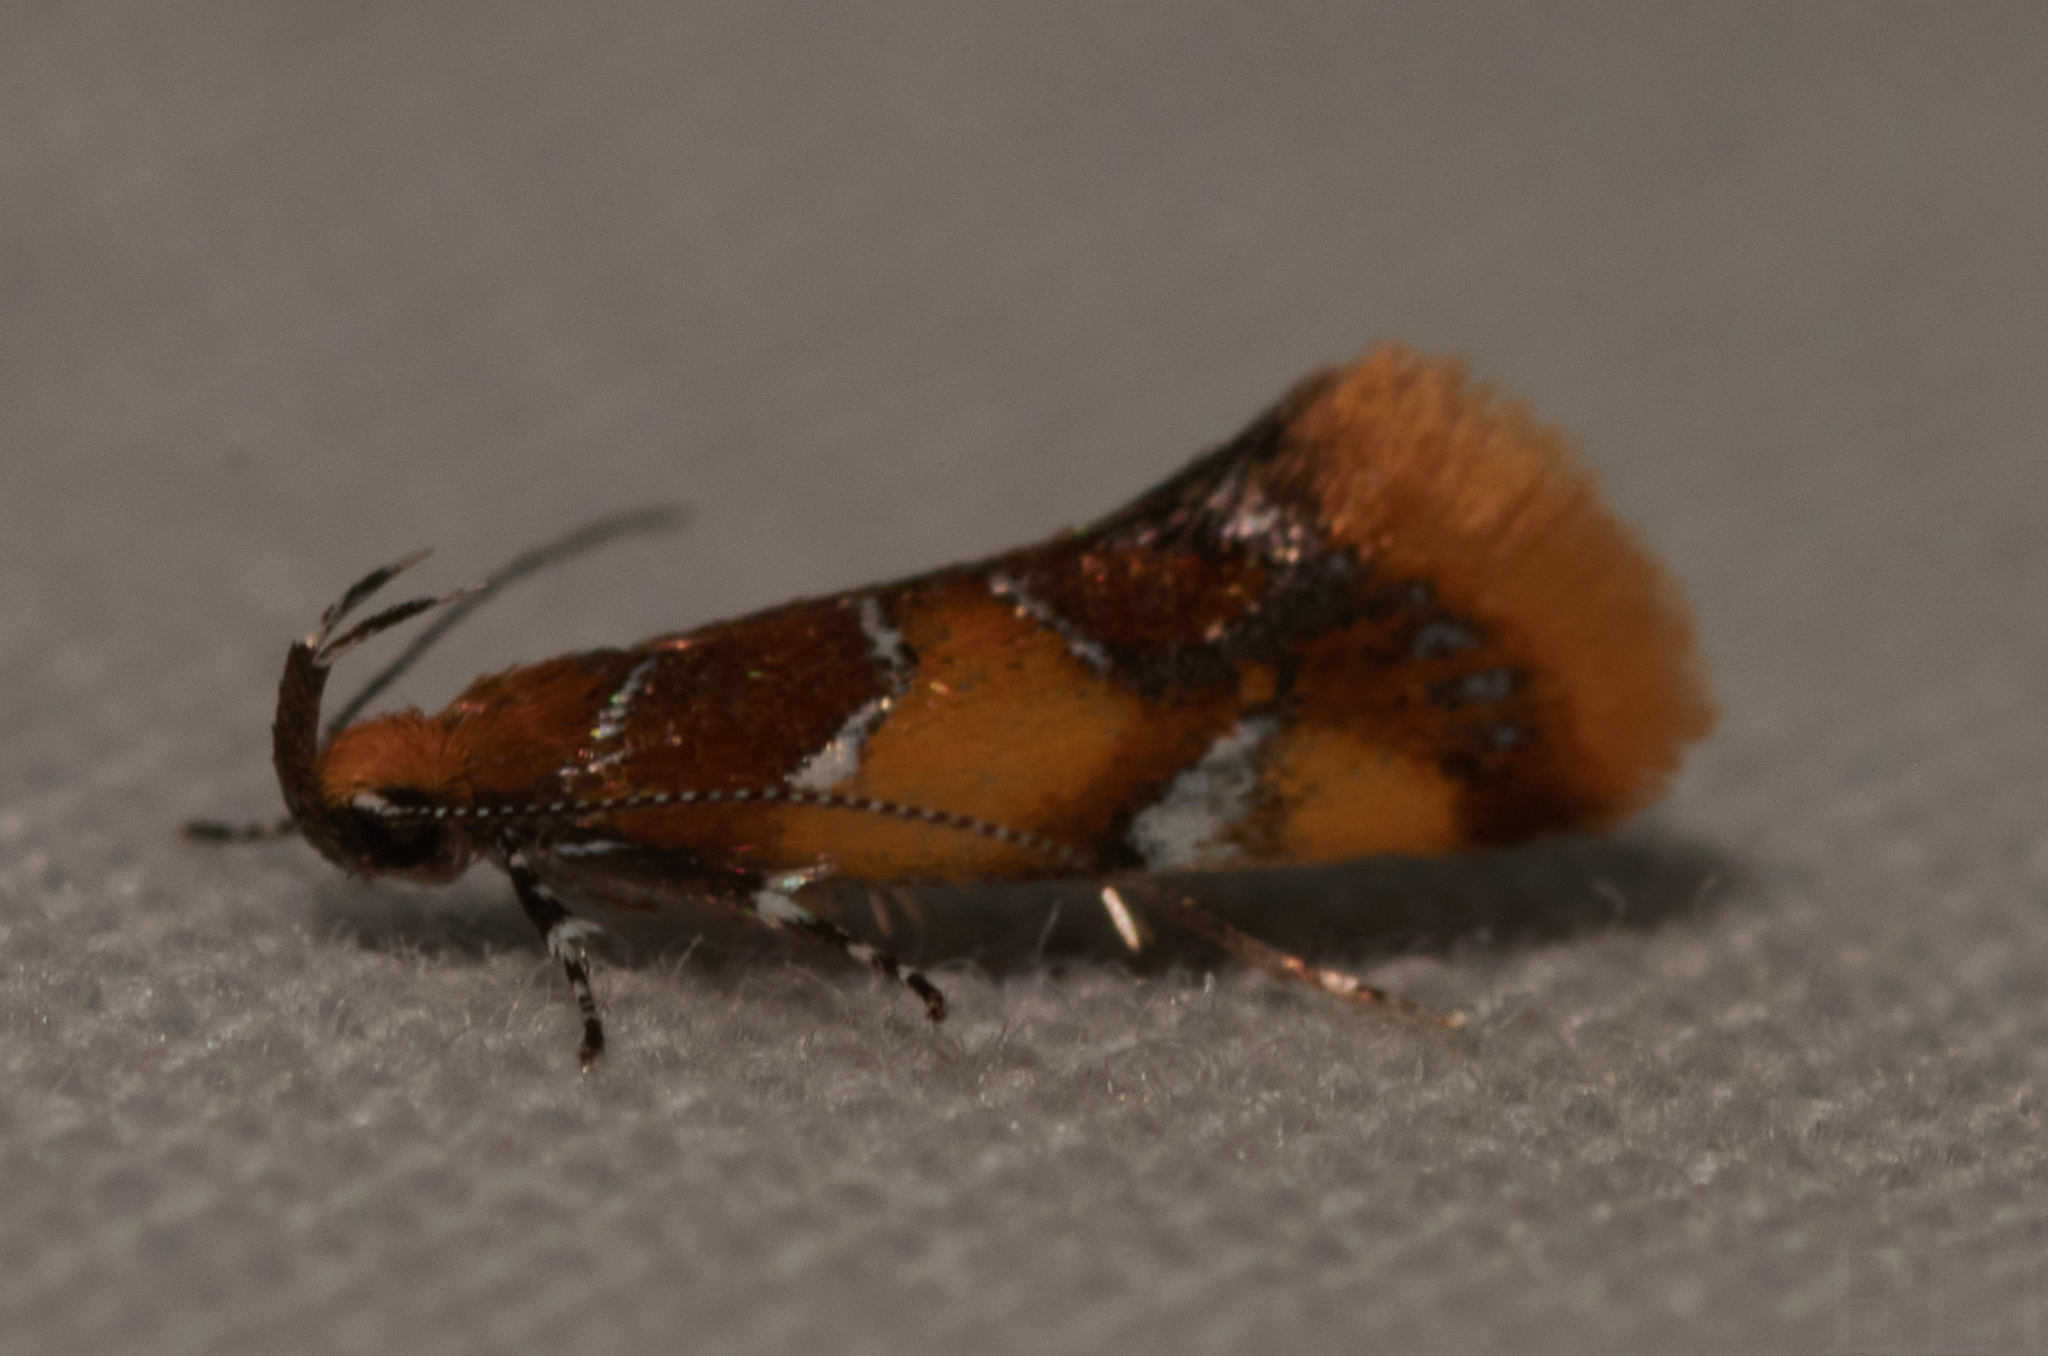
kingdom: Animalia
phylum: Arthropoda
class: Insecta
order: Lepidoptera
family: Oecophoridae
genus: Callima
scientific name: Callima argenticinctella
